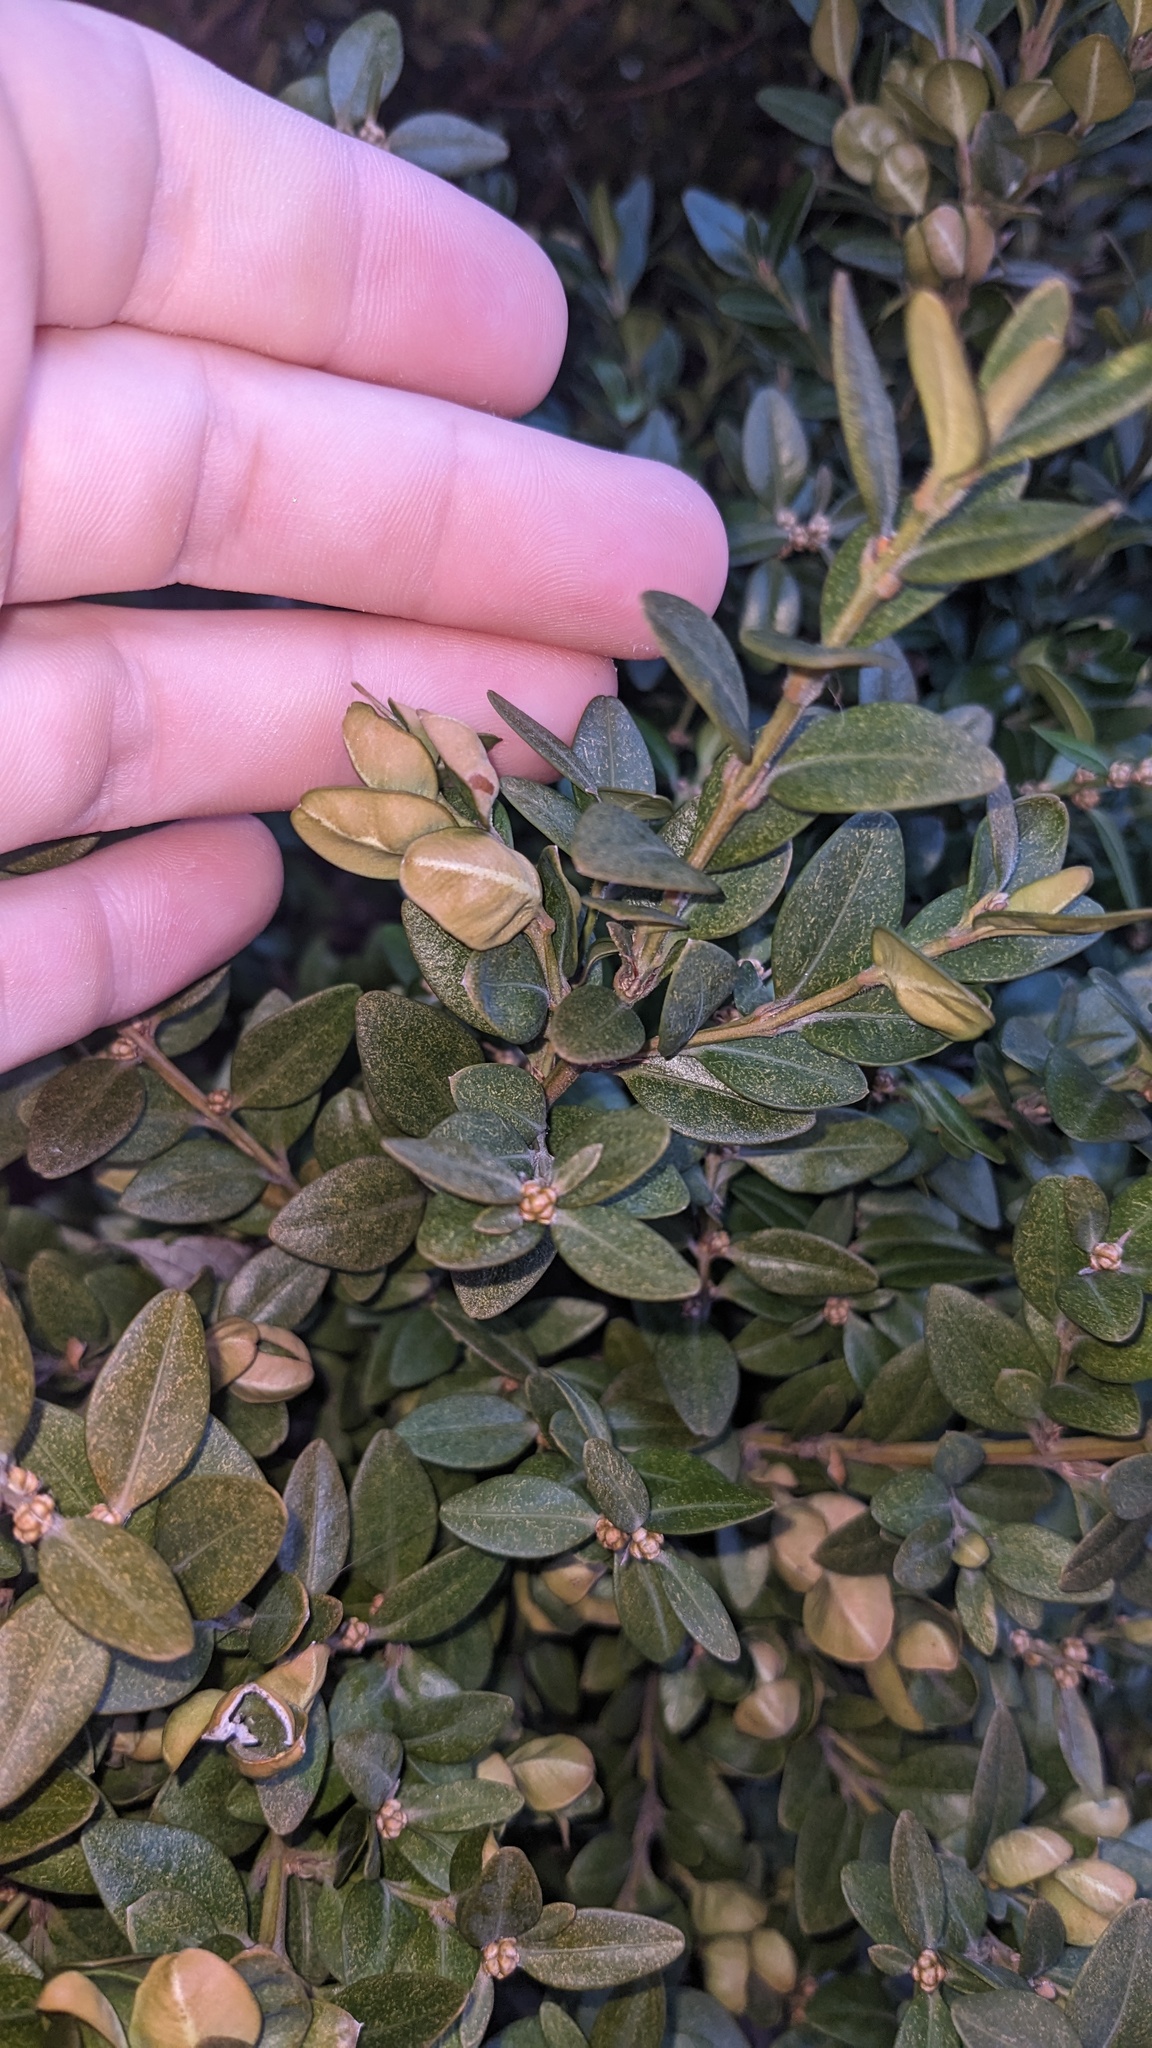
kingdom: Animalia
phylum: Arthropoda
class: Insecta
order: Hemiptera
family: Psyllidae
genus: Psylla
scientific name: Psylla buxi
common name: Boxwood psyllid
